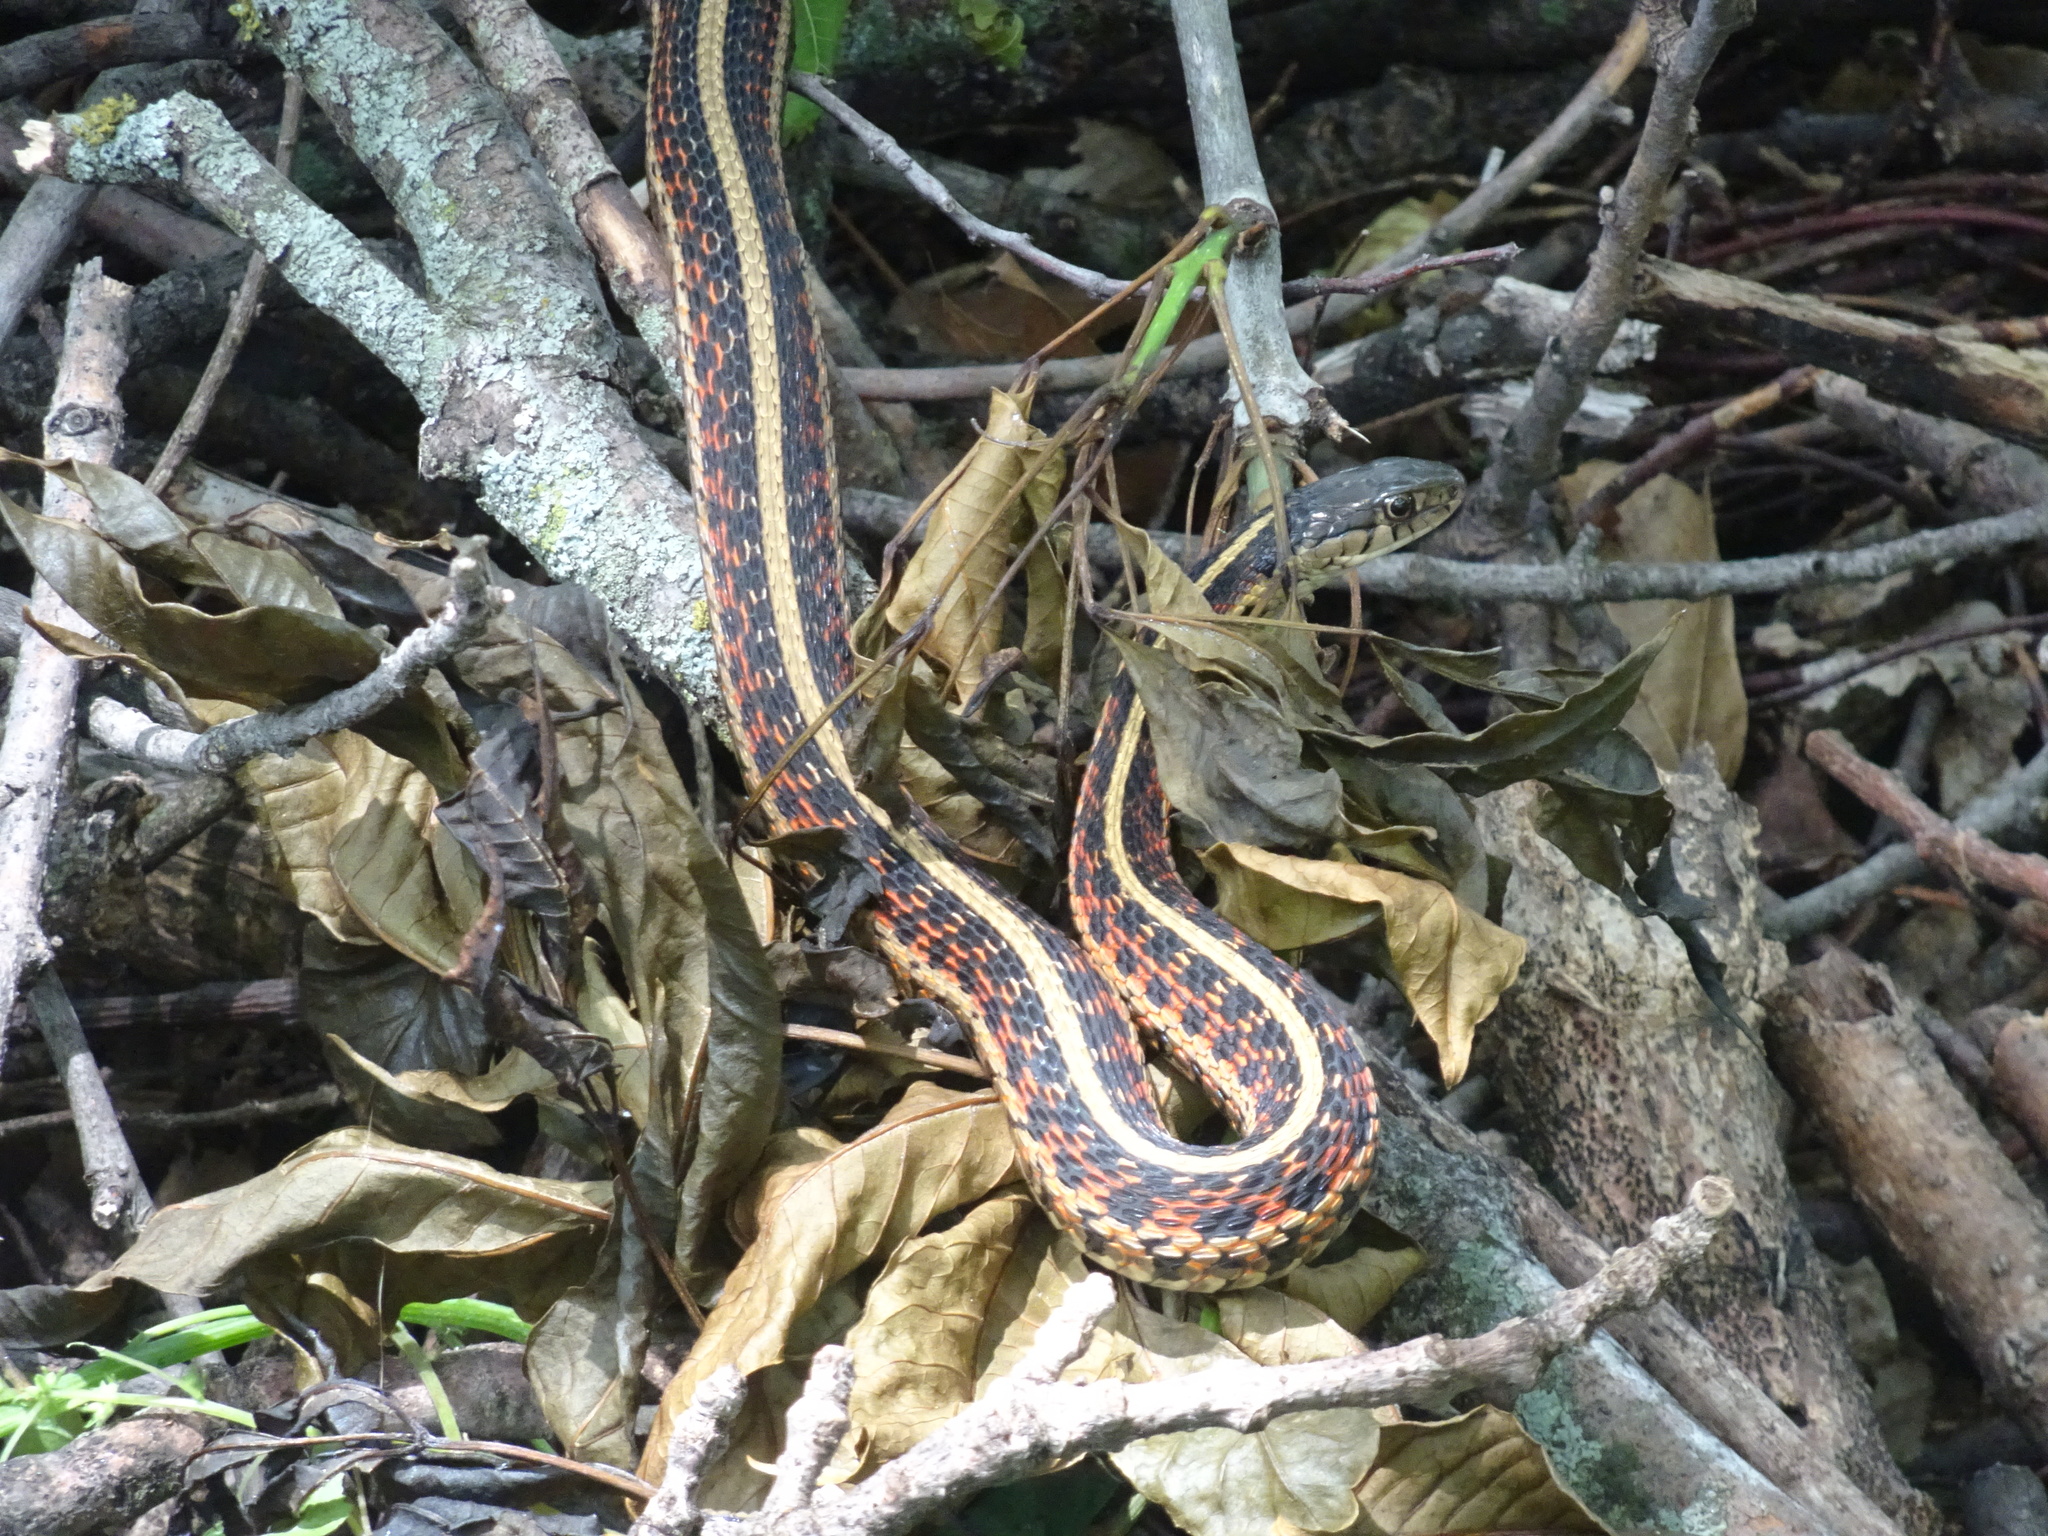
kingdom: Animalia
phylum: Chordata
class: Squamata
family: Colubridae
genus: Thamnophis
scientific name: Thamnophis sirtalis
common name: Common garter snake
